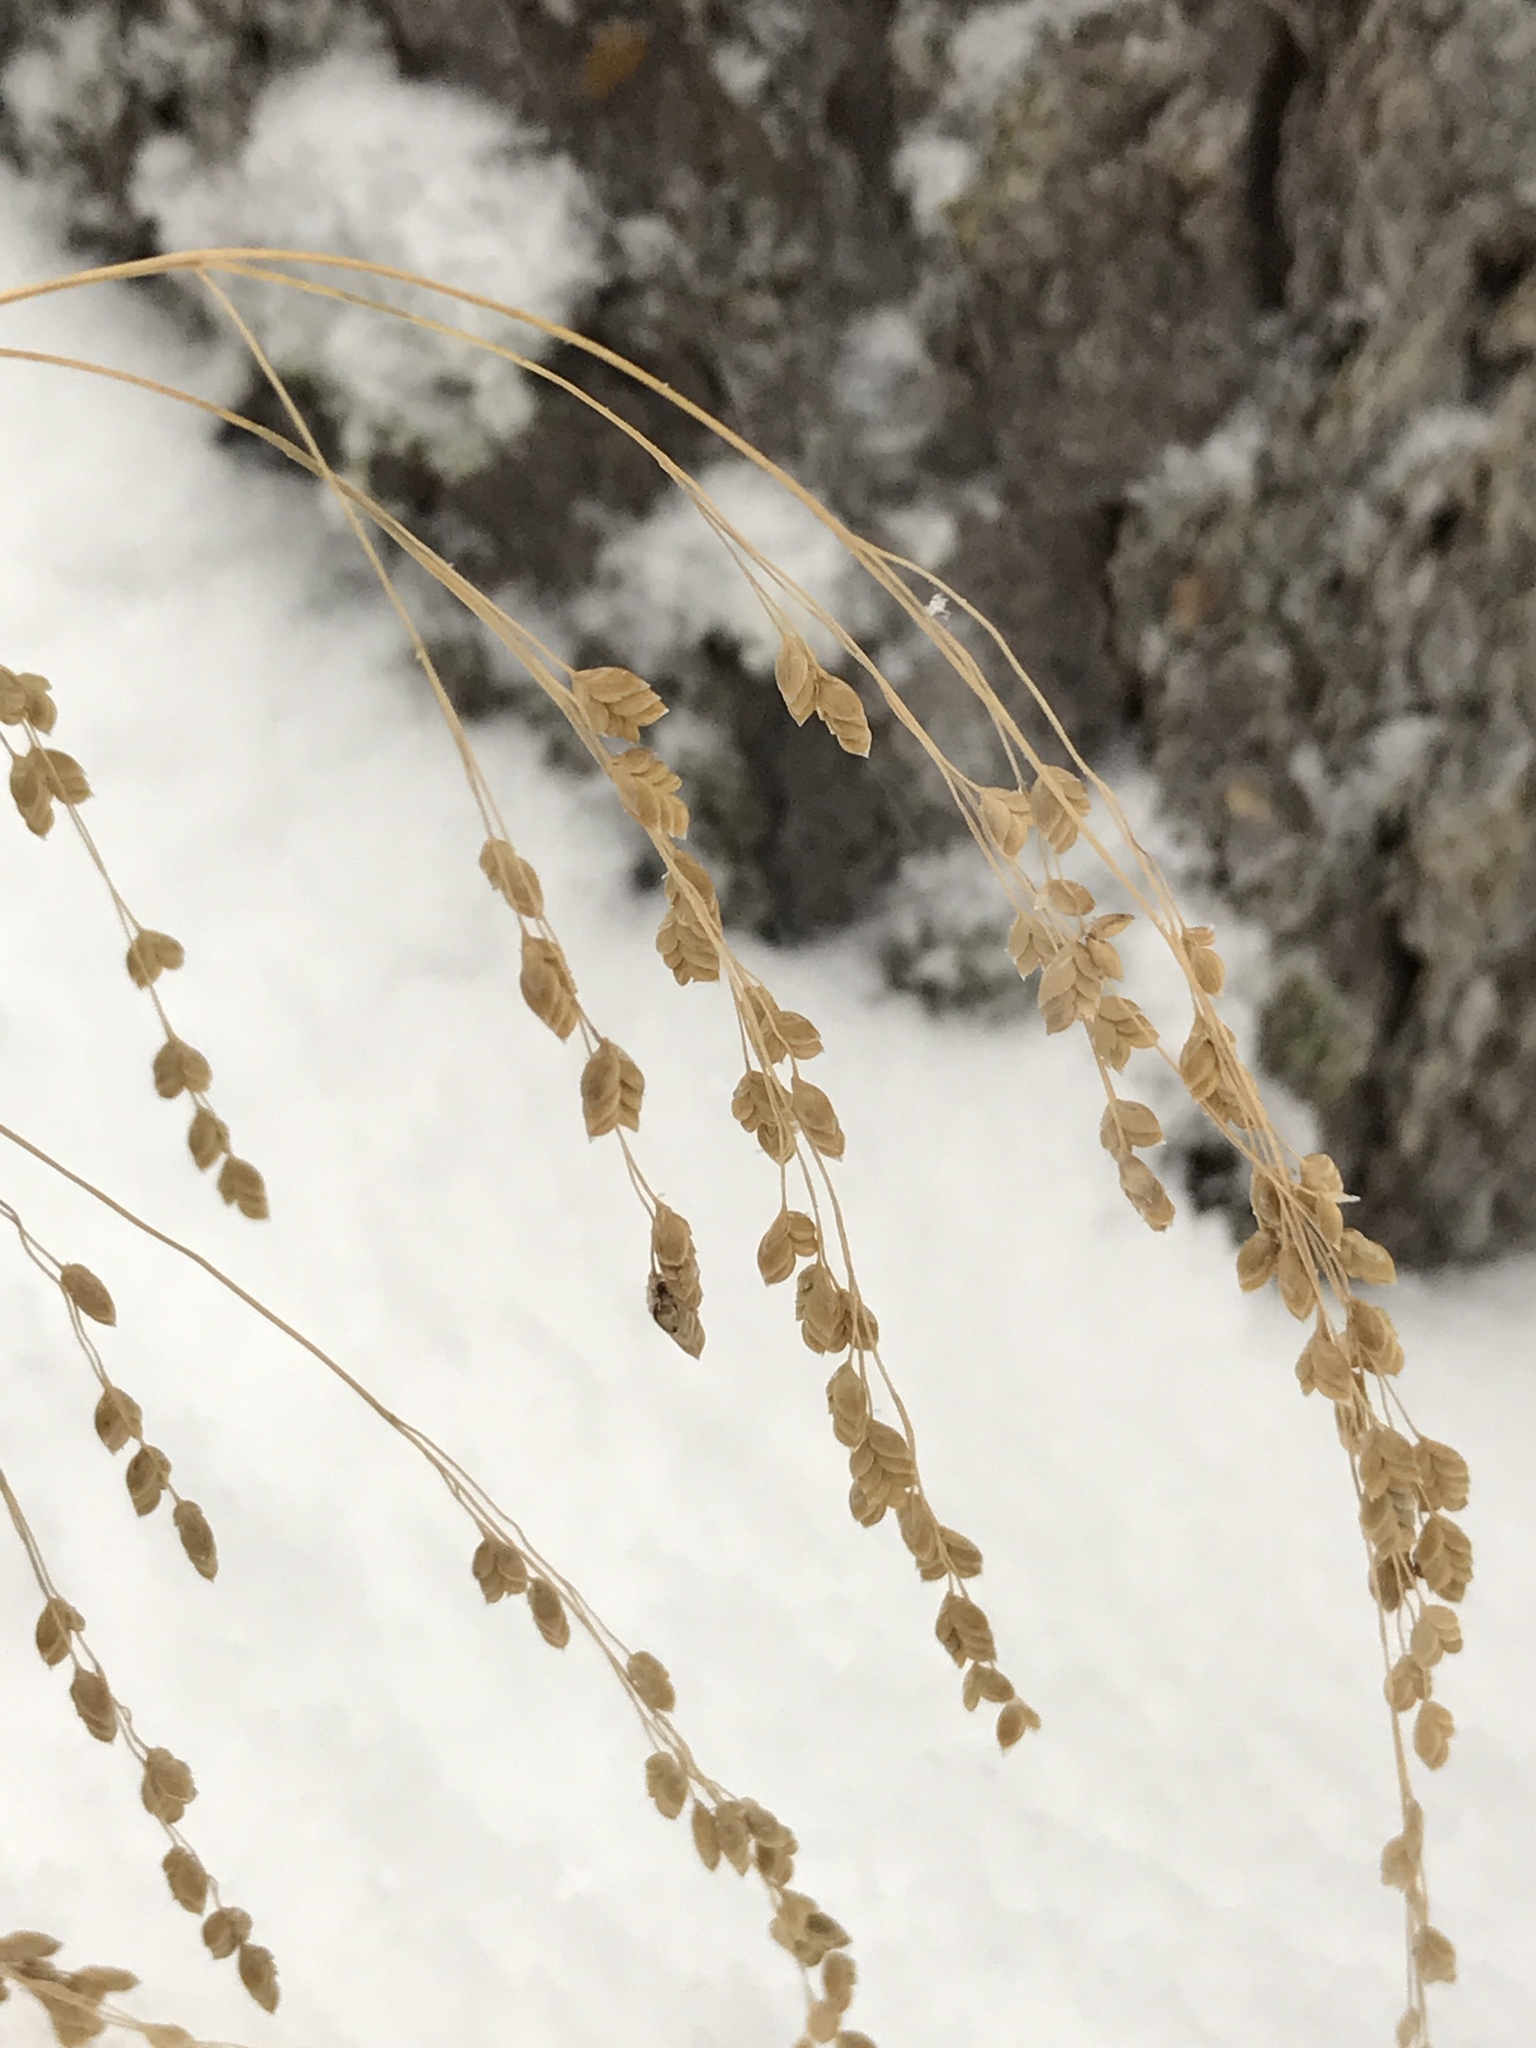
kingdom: Plantae
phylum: Tracheophyta
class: Liliopsida
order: Poales
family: Poaceae
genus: Glyceria
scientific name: Glyceria canadensis
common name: Canada mannagrass
